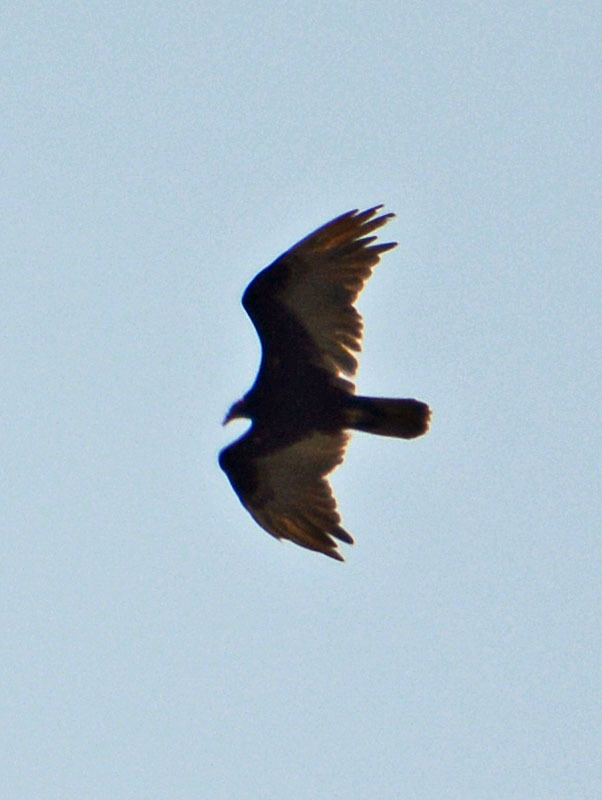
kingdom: Animalia
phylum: Chordata
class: Aves
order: Accipitriformes
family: Cathartidae
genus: Cathartes
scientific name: Cathartes aura
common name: Turkey vulture
